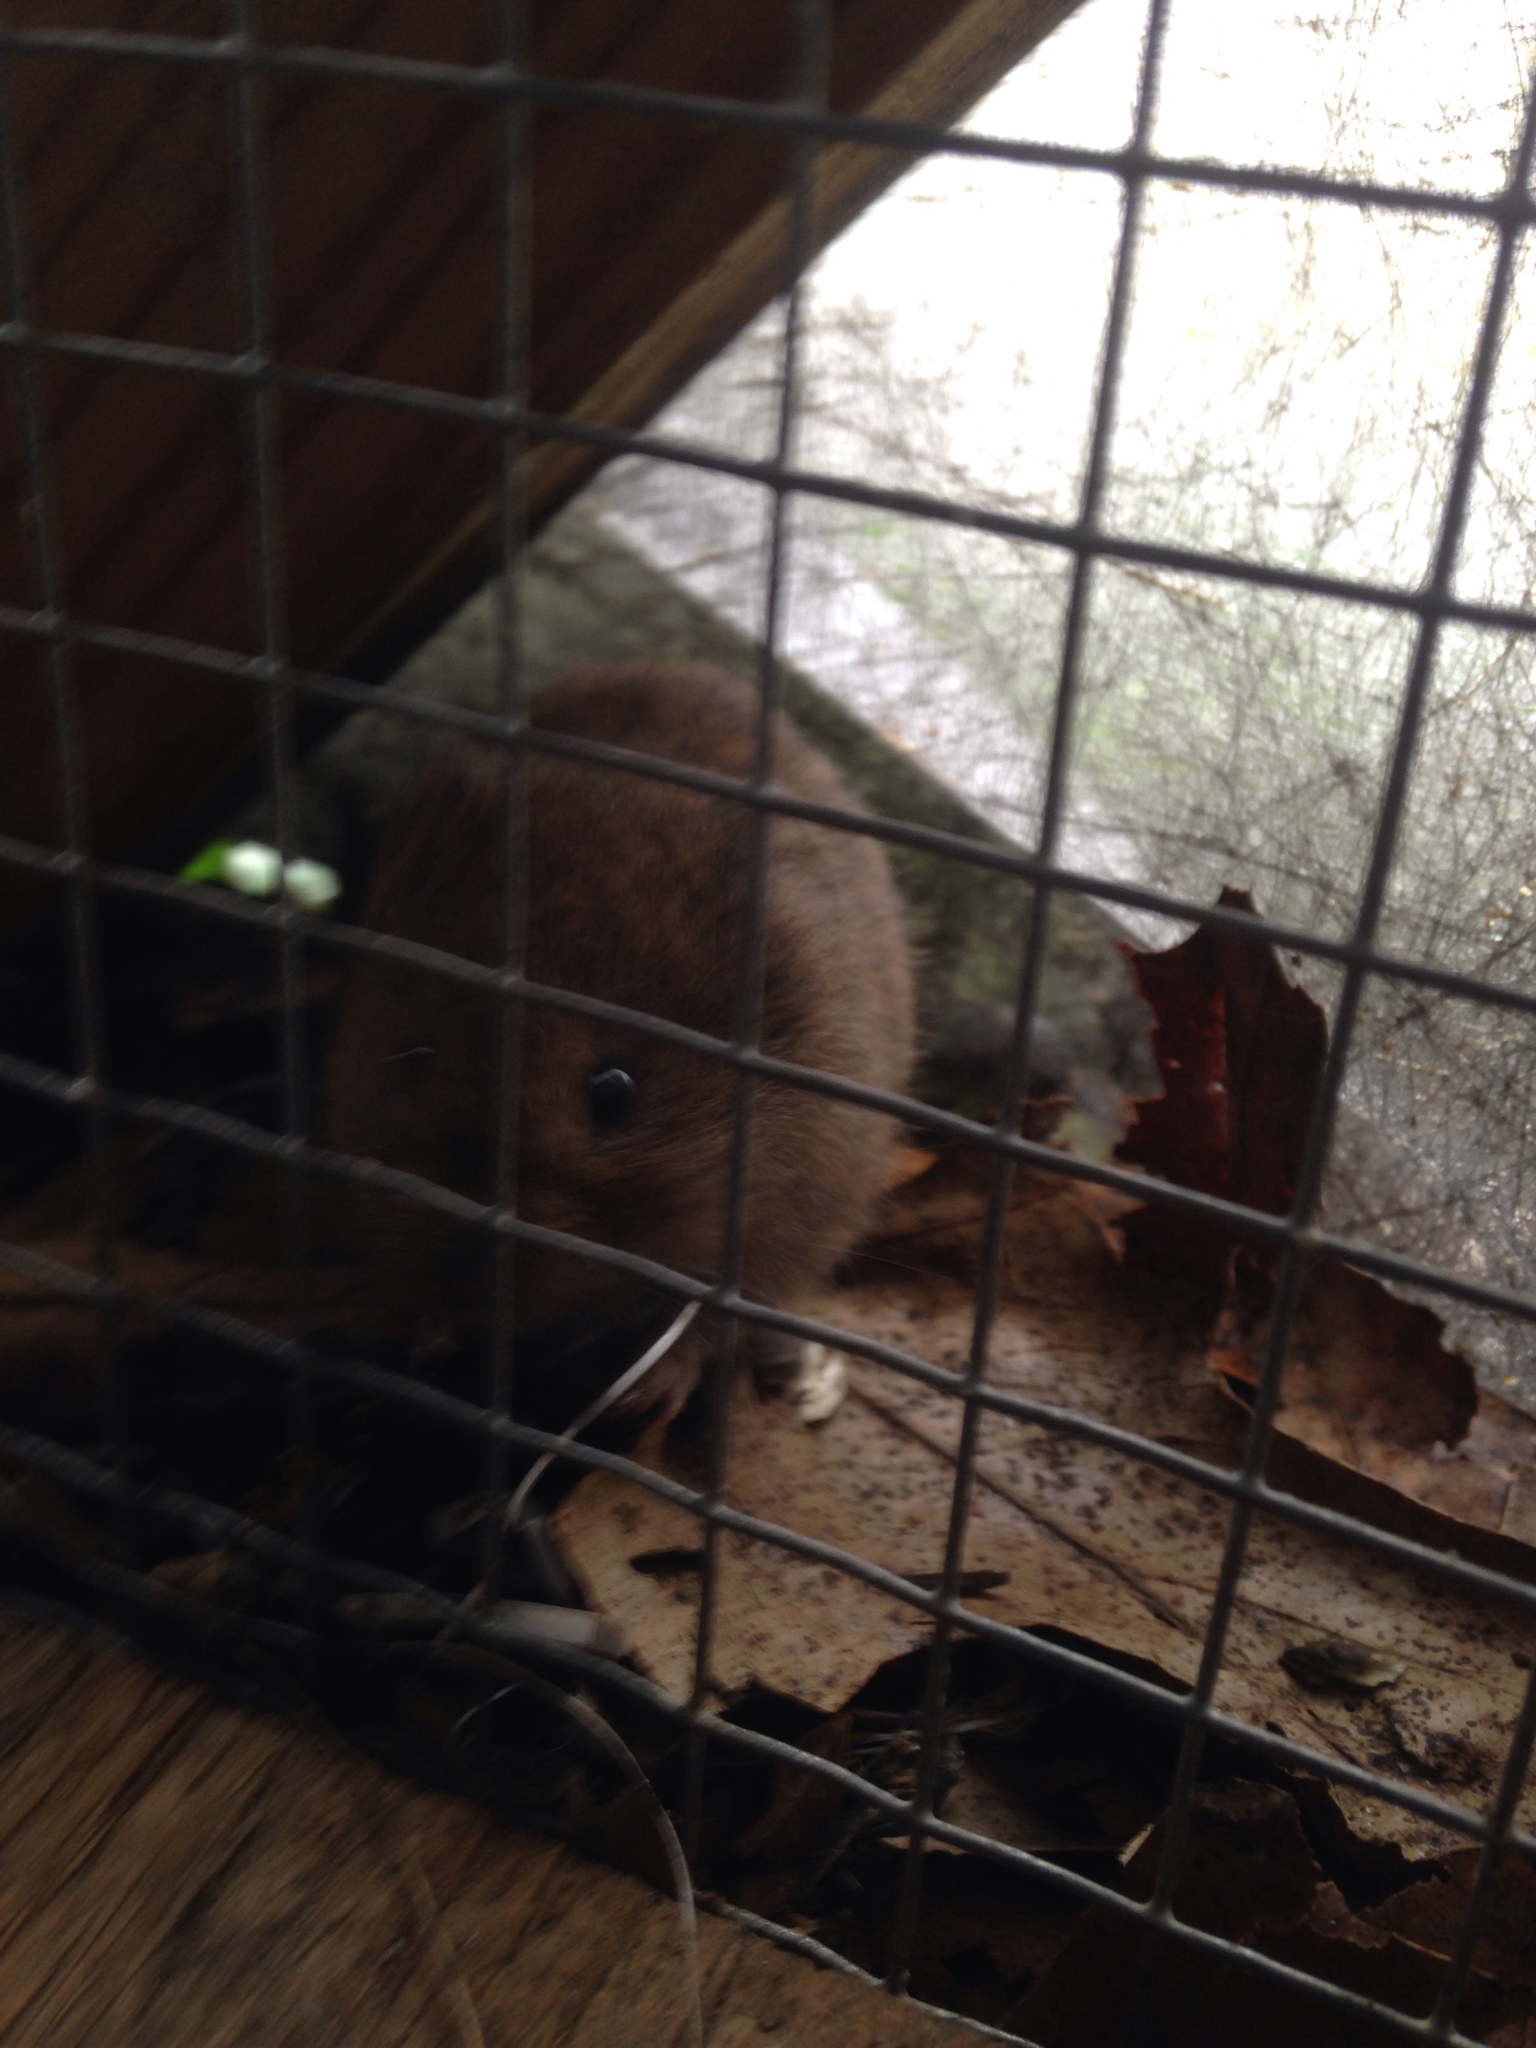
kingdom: Animalia
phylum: Chordata
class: Mammalia
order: Rodentia
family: Cricetidae
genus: Microtus
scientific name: Microtus pennsylvanicus
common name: Meadow vole
